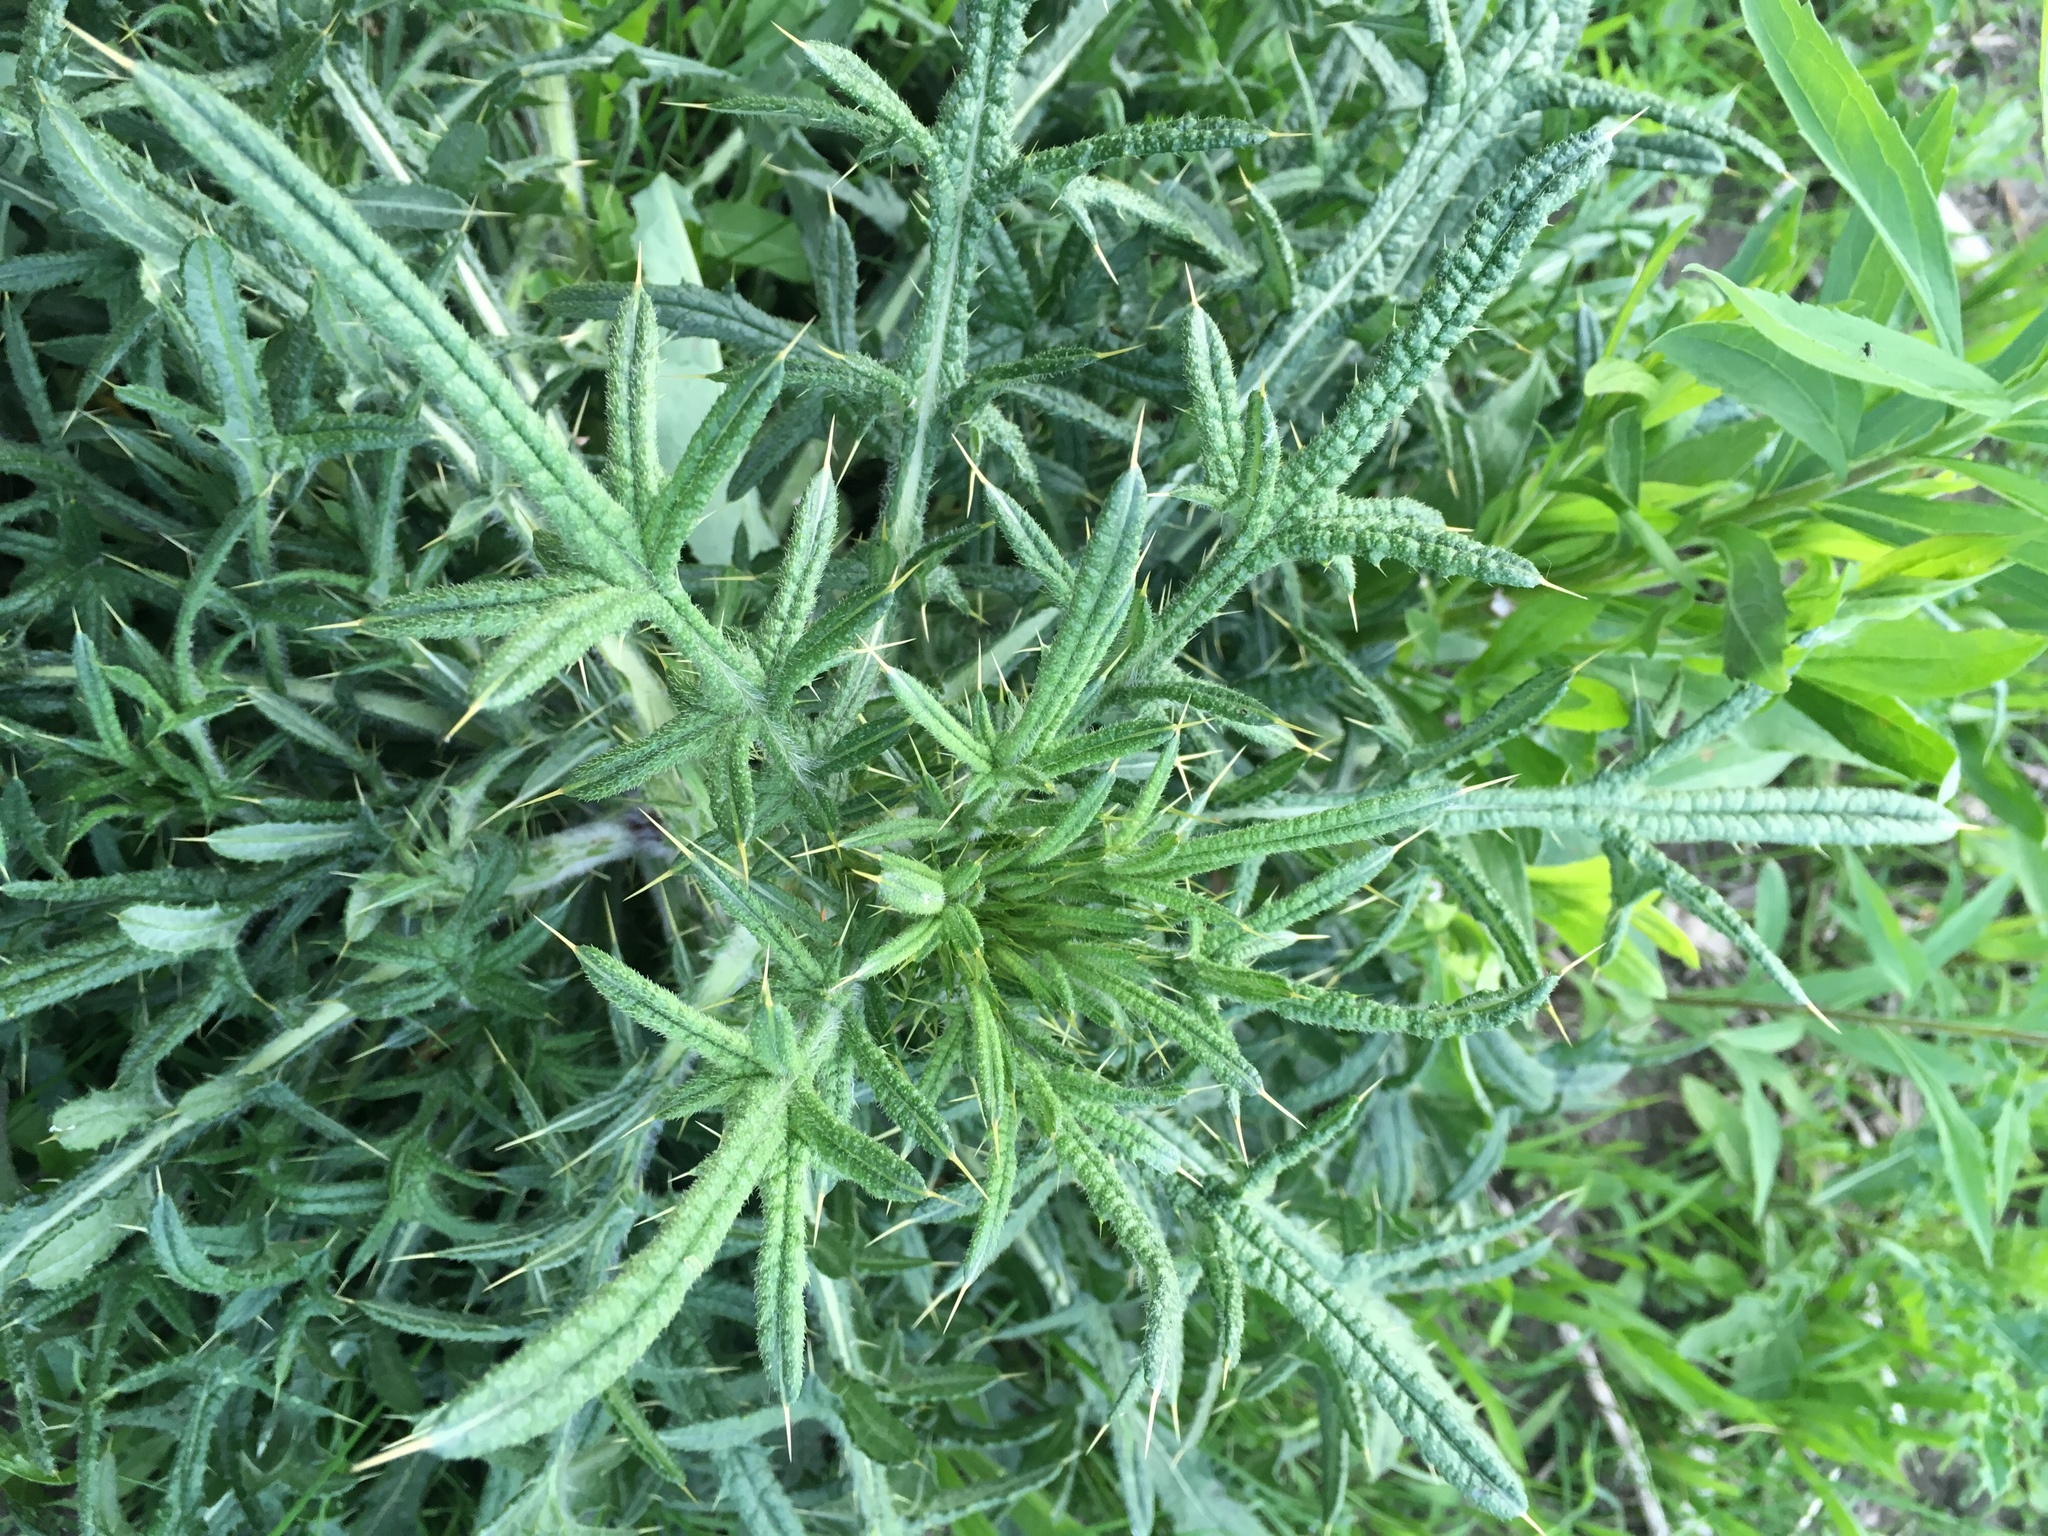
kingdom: Plantae
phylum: Tracheophyta
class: Magnoliopsida
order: Asterales
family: Asteraceae
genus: Cirsium
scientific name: Cirsium vulgare
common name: Bull thistle
